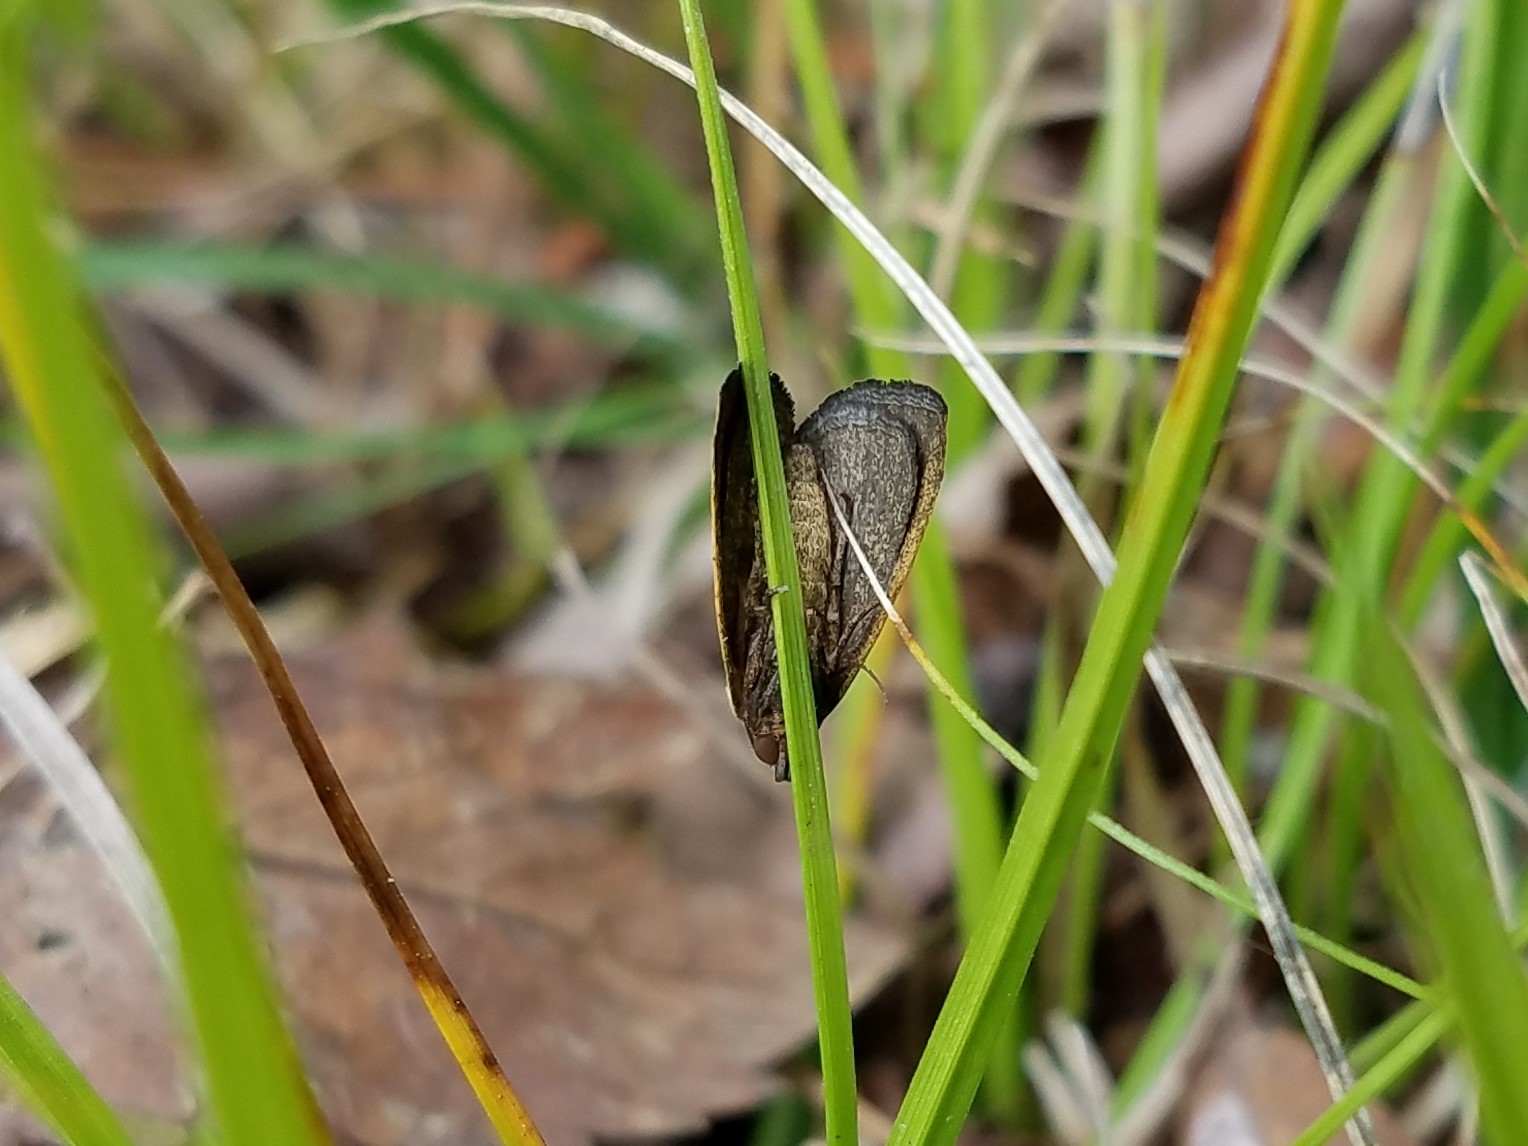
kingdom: Animalia
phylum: Arthropoda
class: Insecta
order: Lepidoptera
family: Noctuidae
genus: Marimatha
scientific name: Marimatha nigrofimbria
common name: Black-bordered lemon moth
